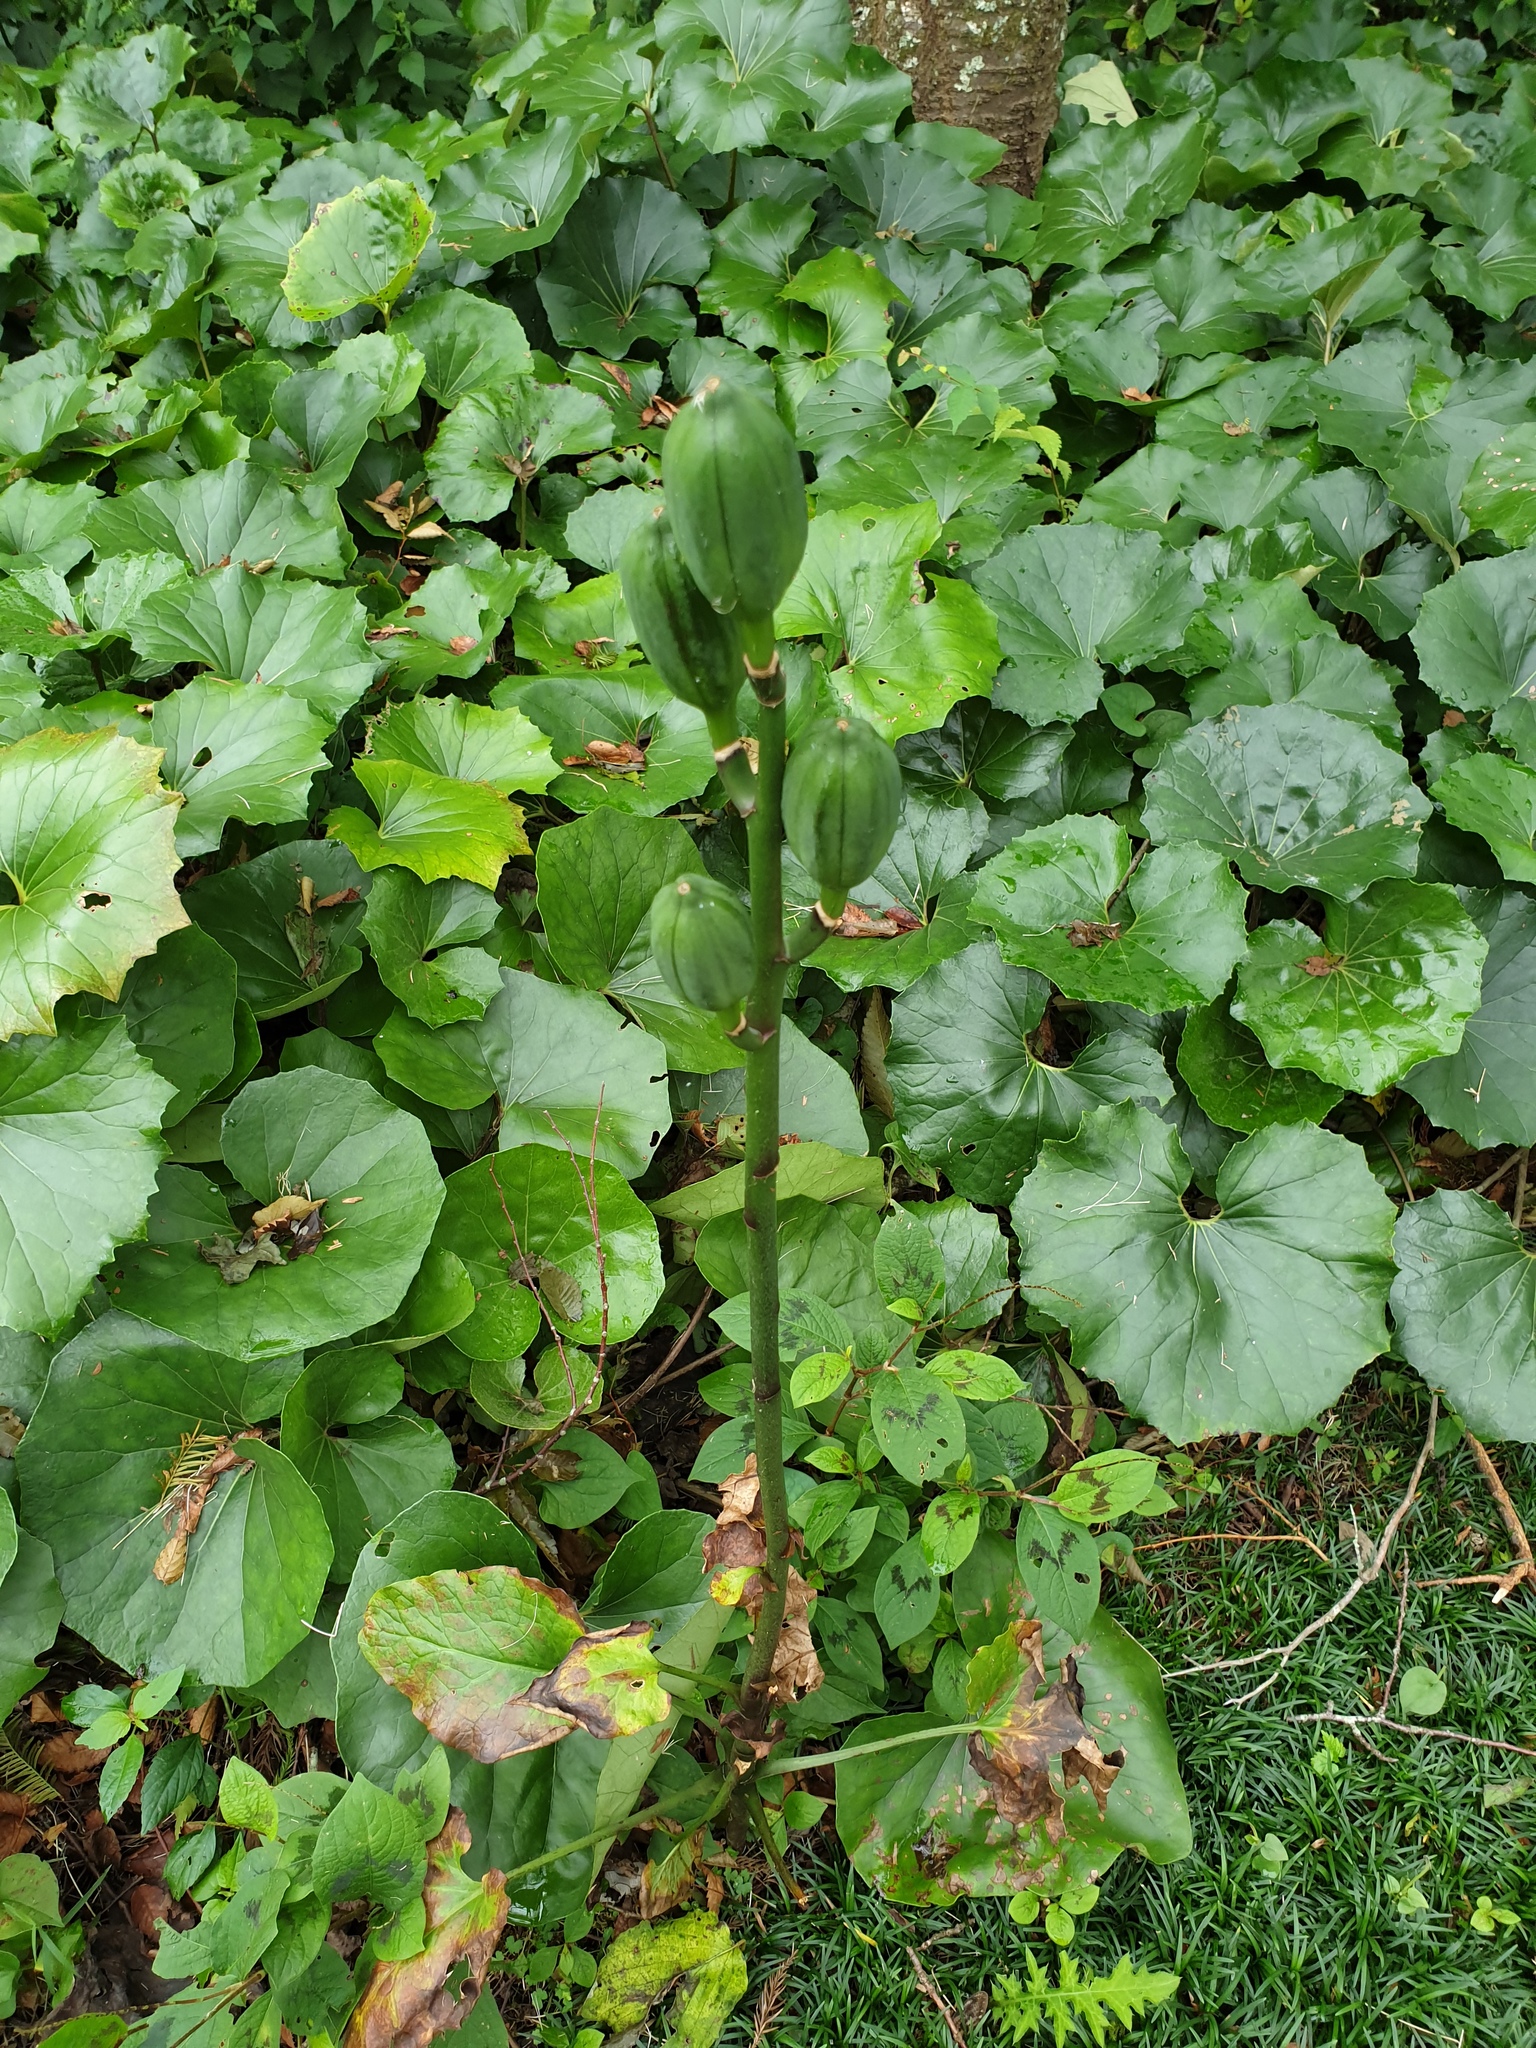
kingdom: Plantae
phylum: Tracheophyta
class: Liliopsida
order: Liliales
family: Liliaceae
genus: Cardiocrinum
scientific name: Cardiocrinum cordatum
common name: Lily
